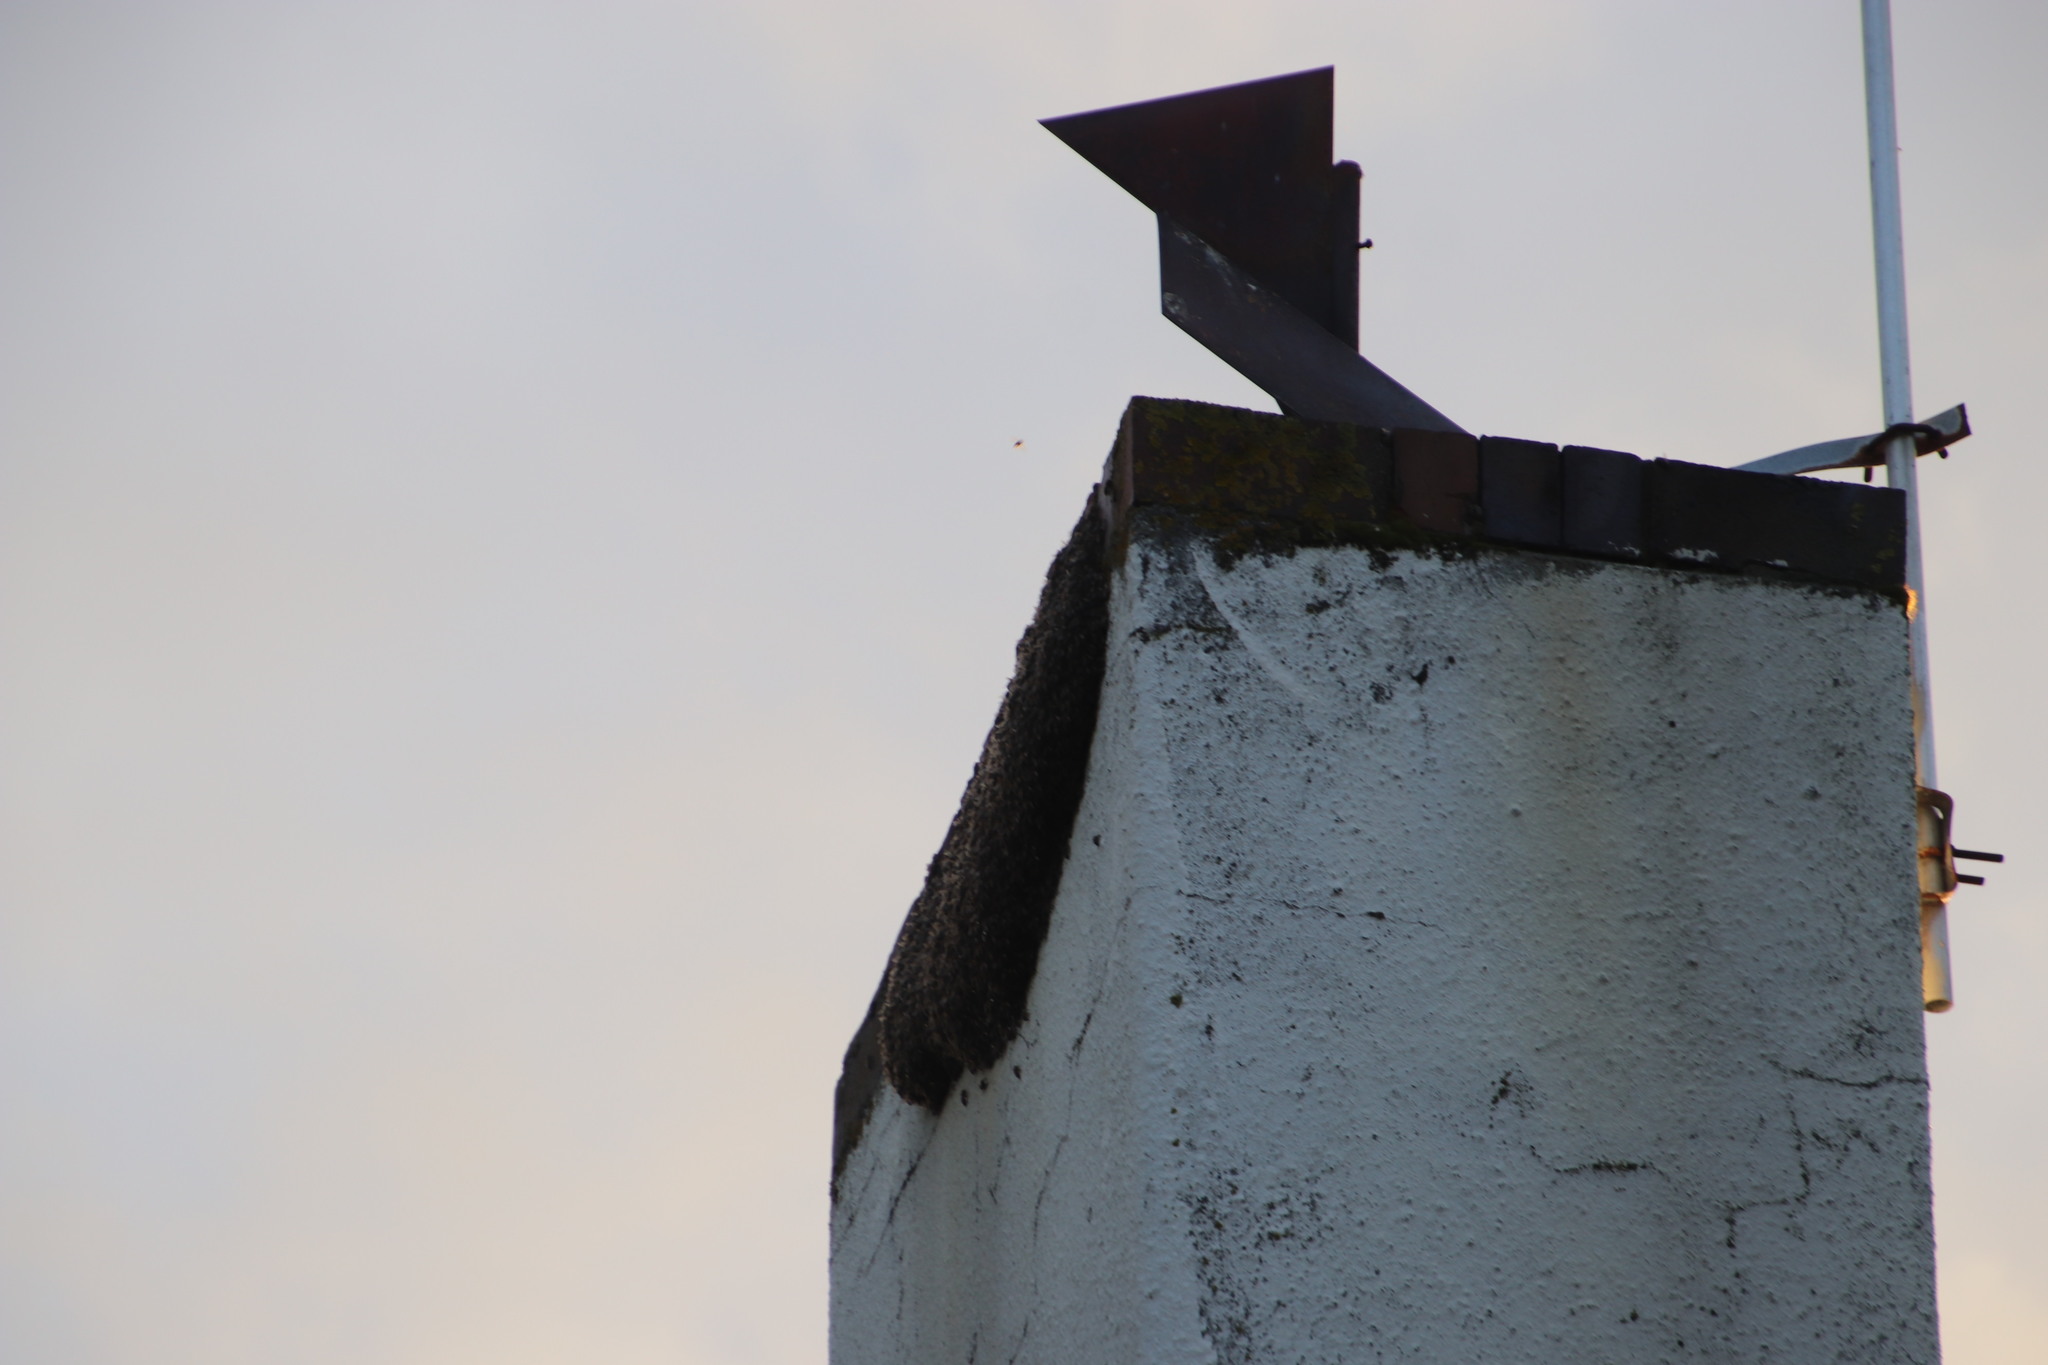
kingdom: Animalia
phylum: Arthropoda
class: Insecta
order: Hymenoptera
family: Apidae
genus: Apis
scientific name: Apis mellifera
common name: Honey bee
